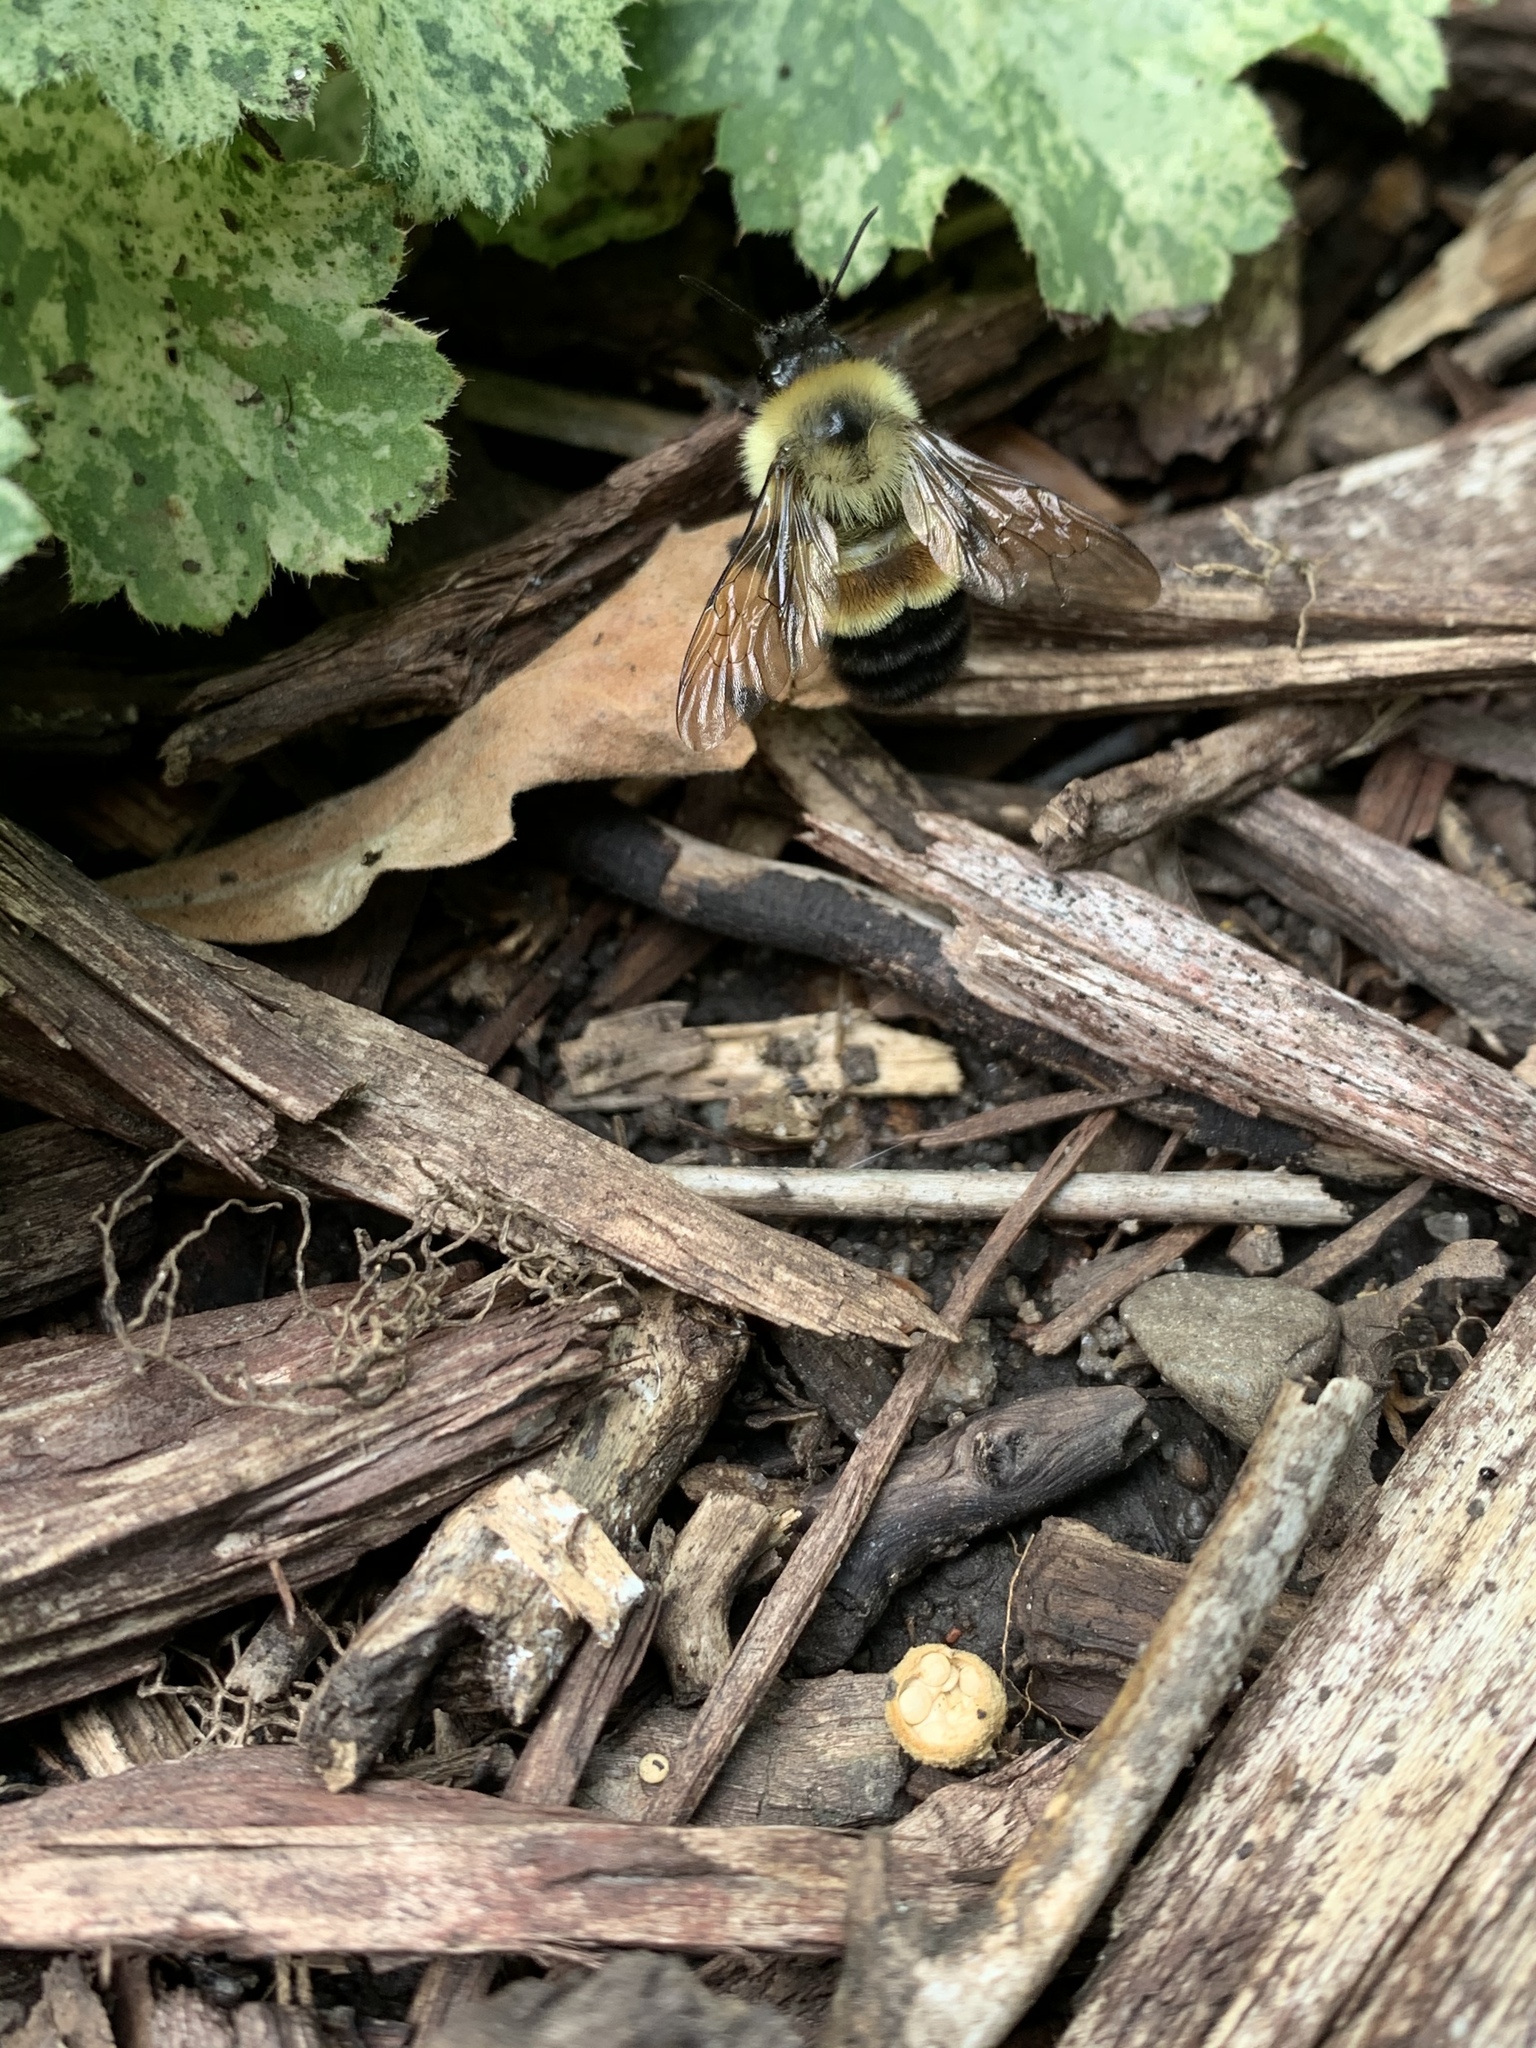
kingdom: Animalia
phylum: Arthropoda
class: Insecta
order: Hymenoptera
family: Apidae
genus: Bombus
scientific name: Bombus affinis
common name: Rusty patched bumble bee
